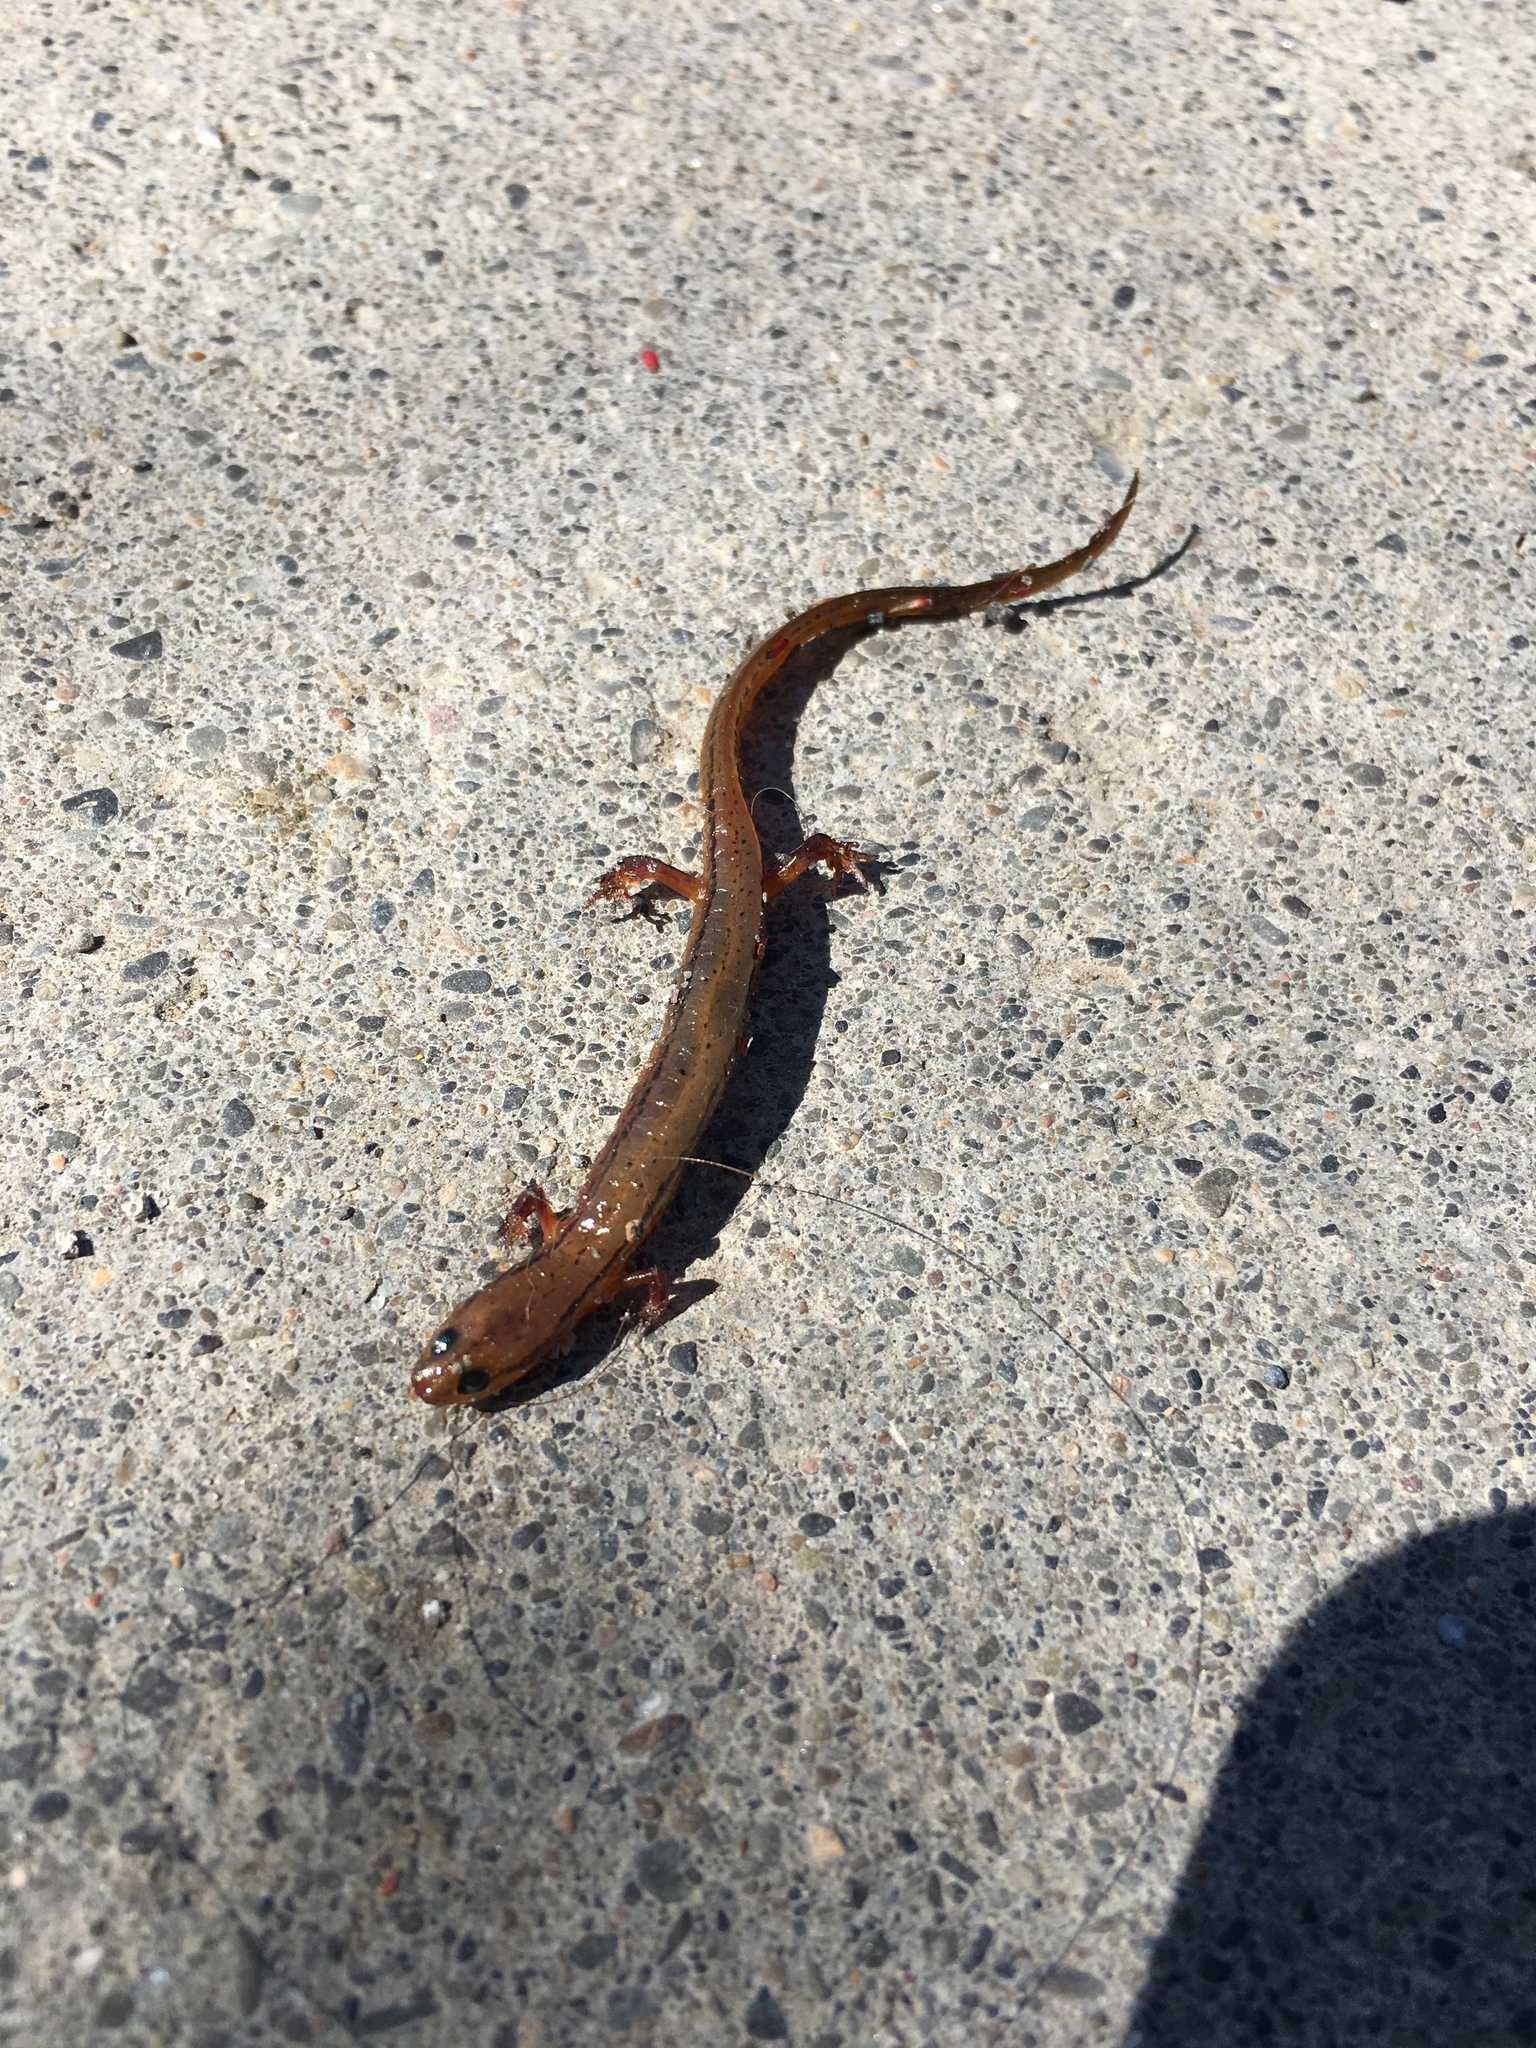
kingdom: Animalia
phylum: Chordata
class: Amphibia
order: Caudata
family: Plethodontidae
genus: Eurycea
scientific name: Eurycea bislineata
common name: Northern two-lined salamander
